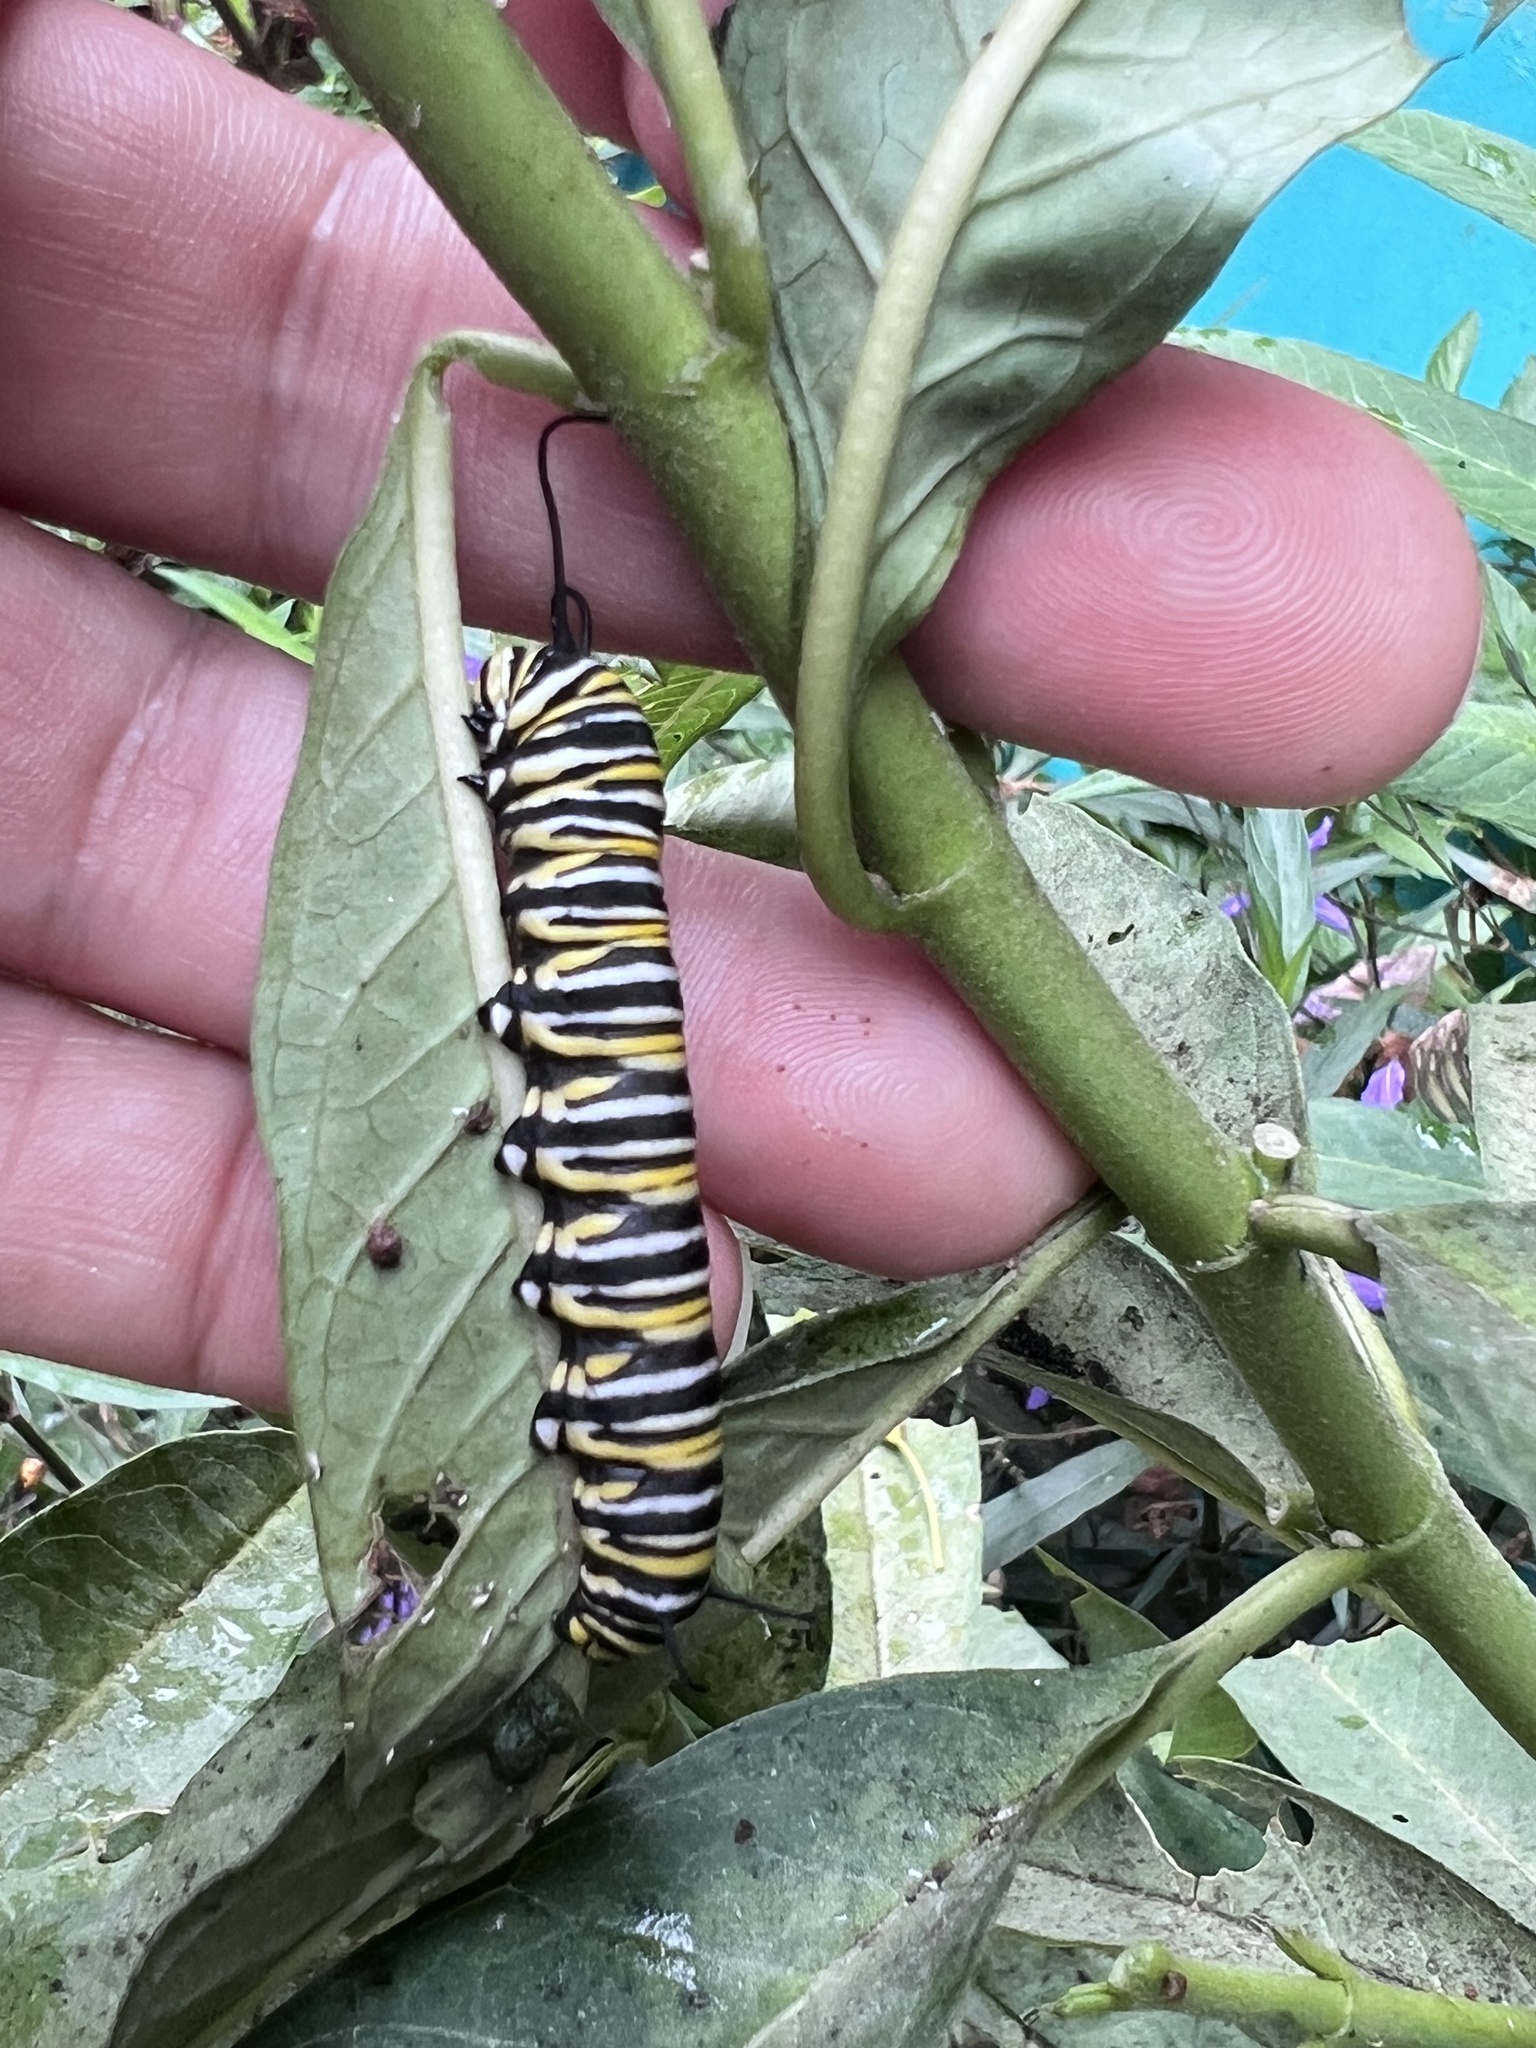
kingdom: Animalia
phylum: Arthropoda
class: Insecta
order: Lepidoptera
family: Nymphalidae
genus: Danaus
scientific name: Danaus plexippus
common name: Monarch
